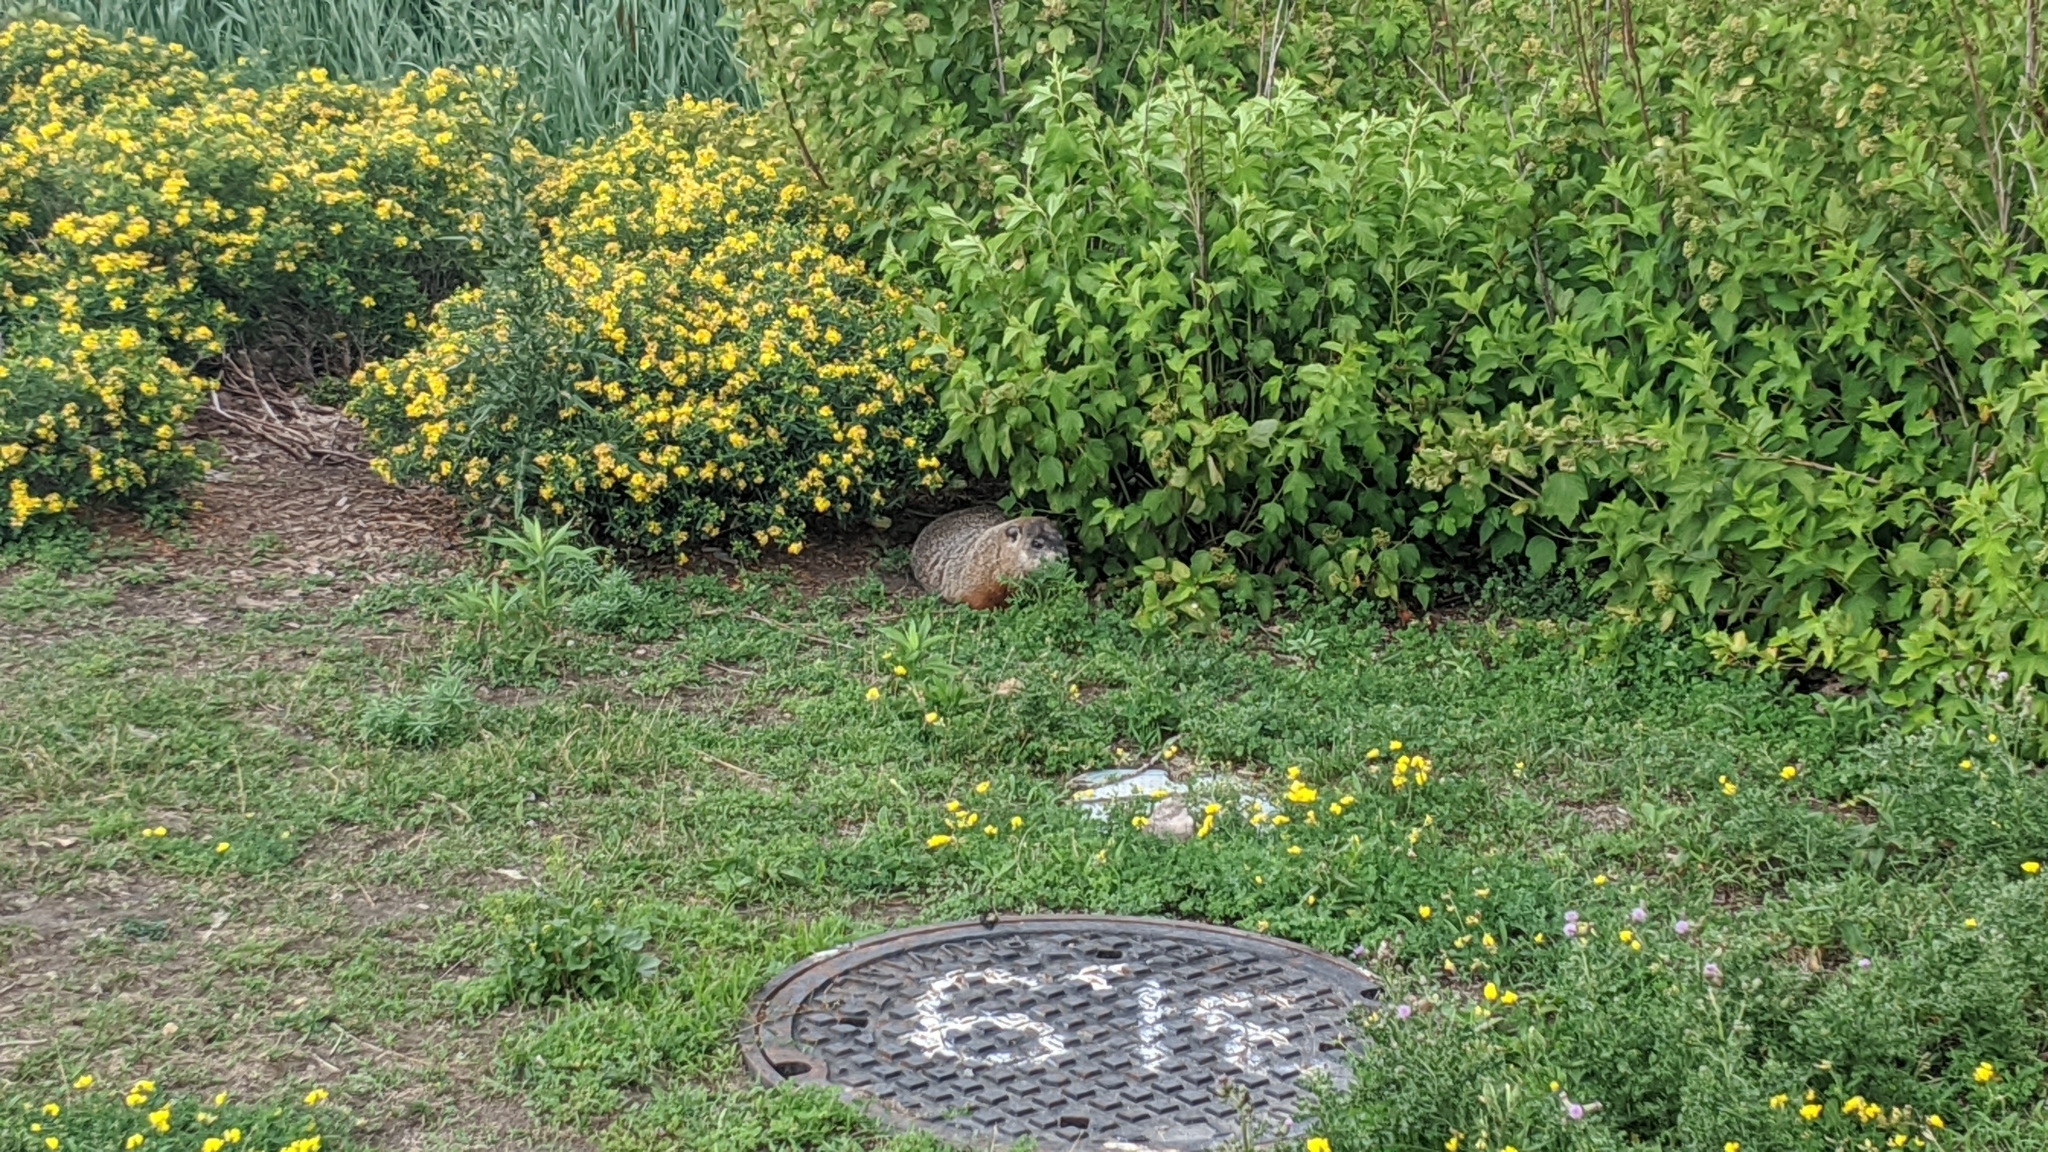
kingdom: Animalia
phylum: Chordata
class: Mammalia
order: Rodentia
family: Sciuridae
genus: Marmota
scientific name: Marmota monax
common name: Groundhog
